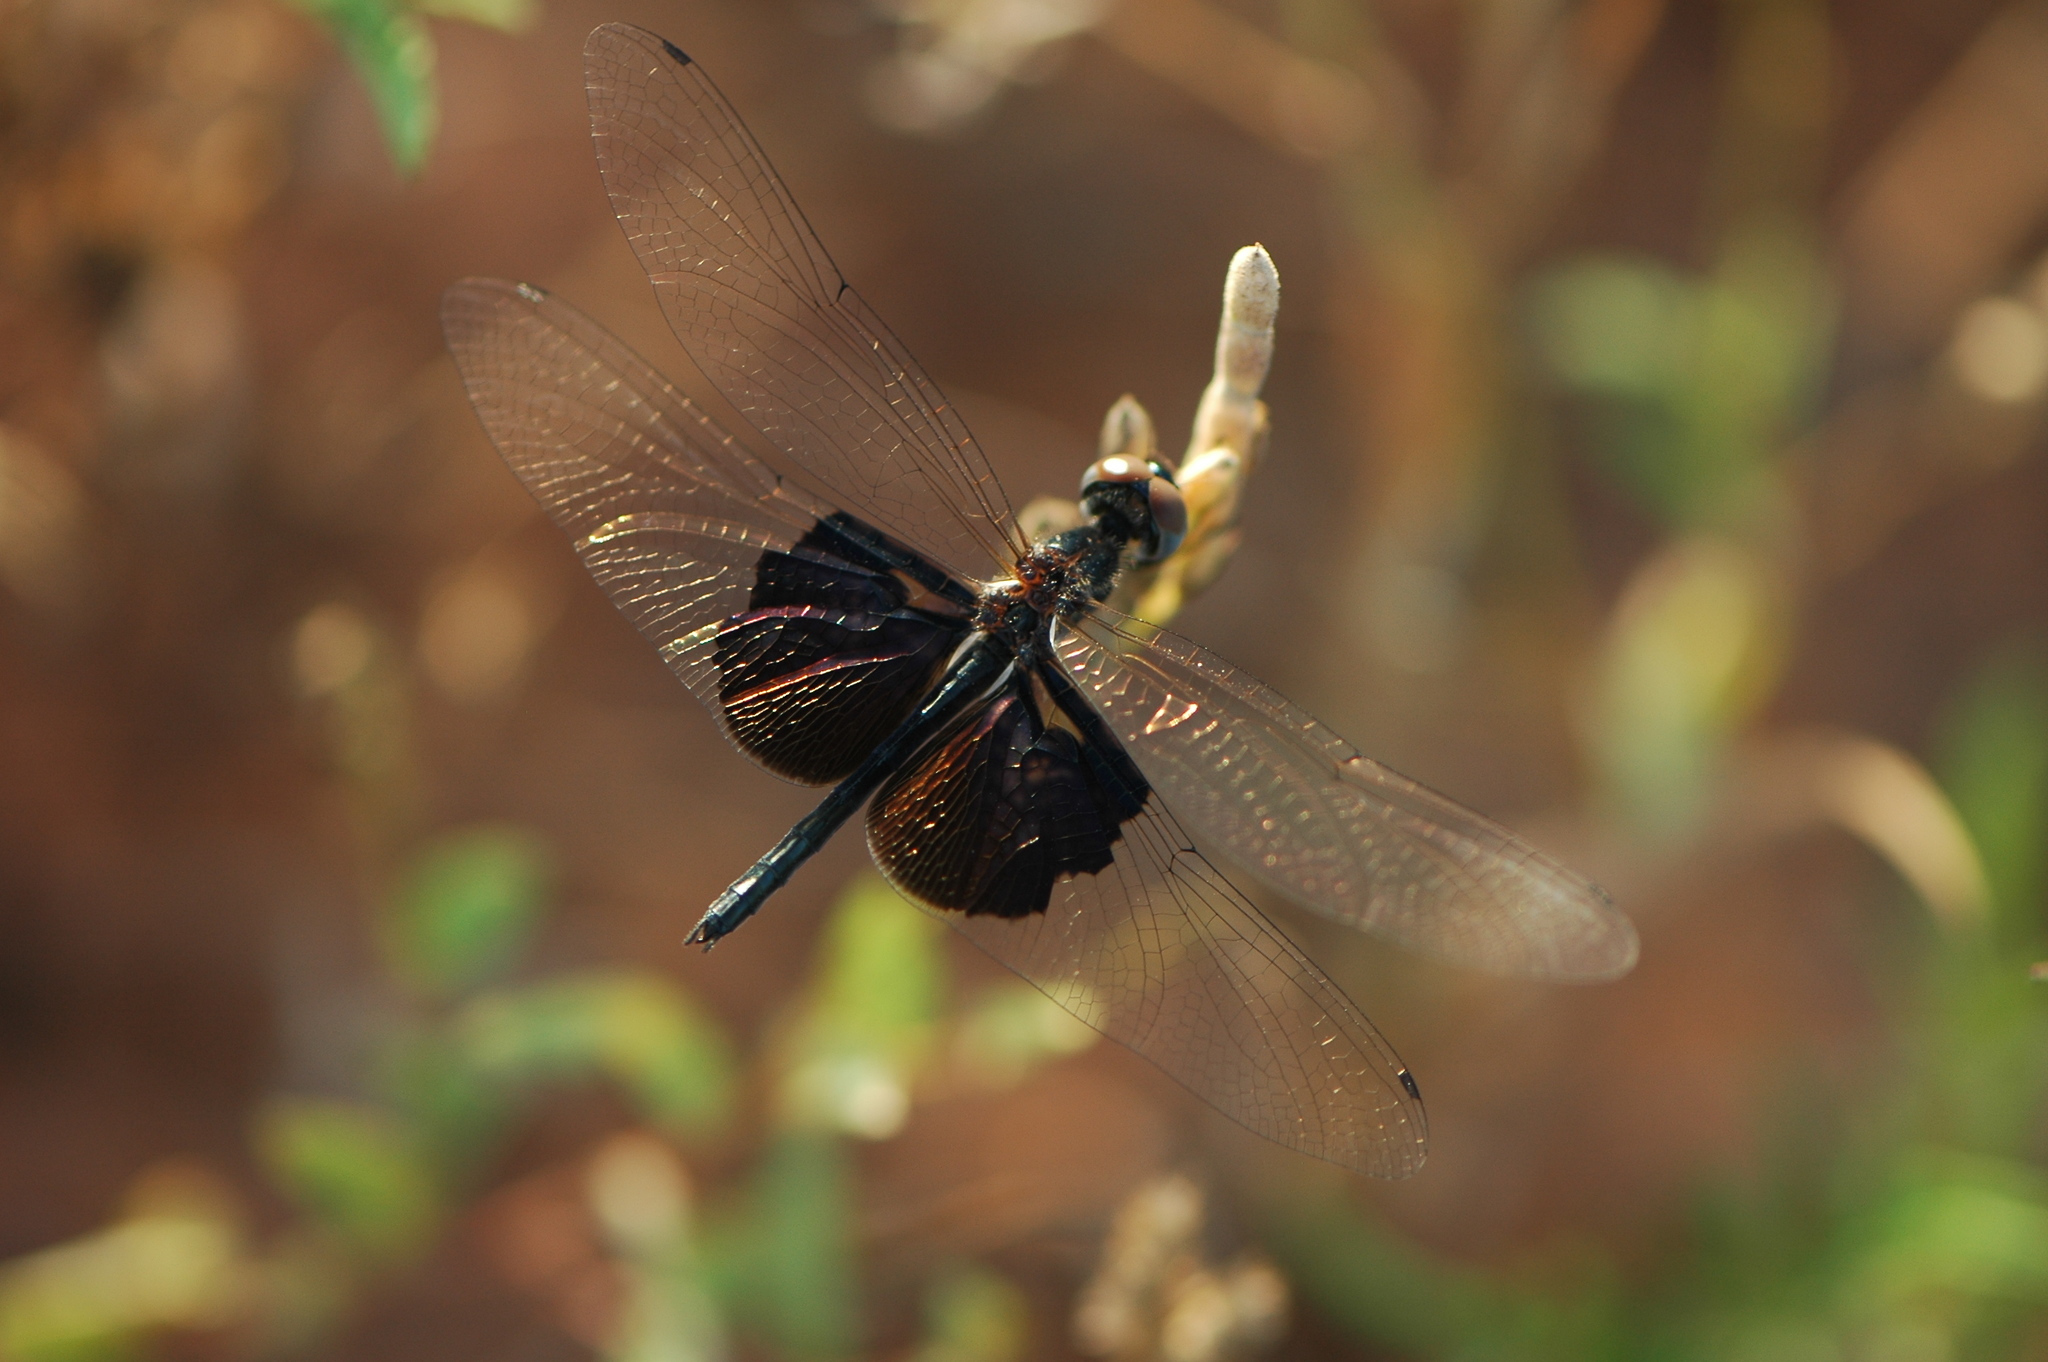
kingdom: Animalia
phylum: Arthropoda
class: Insecta
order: Odonata
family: Libellulidae
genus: Rhyothemis
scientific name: Rhyothemis semihyalina
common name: Phantom flutterer
